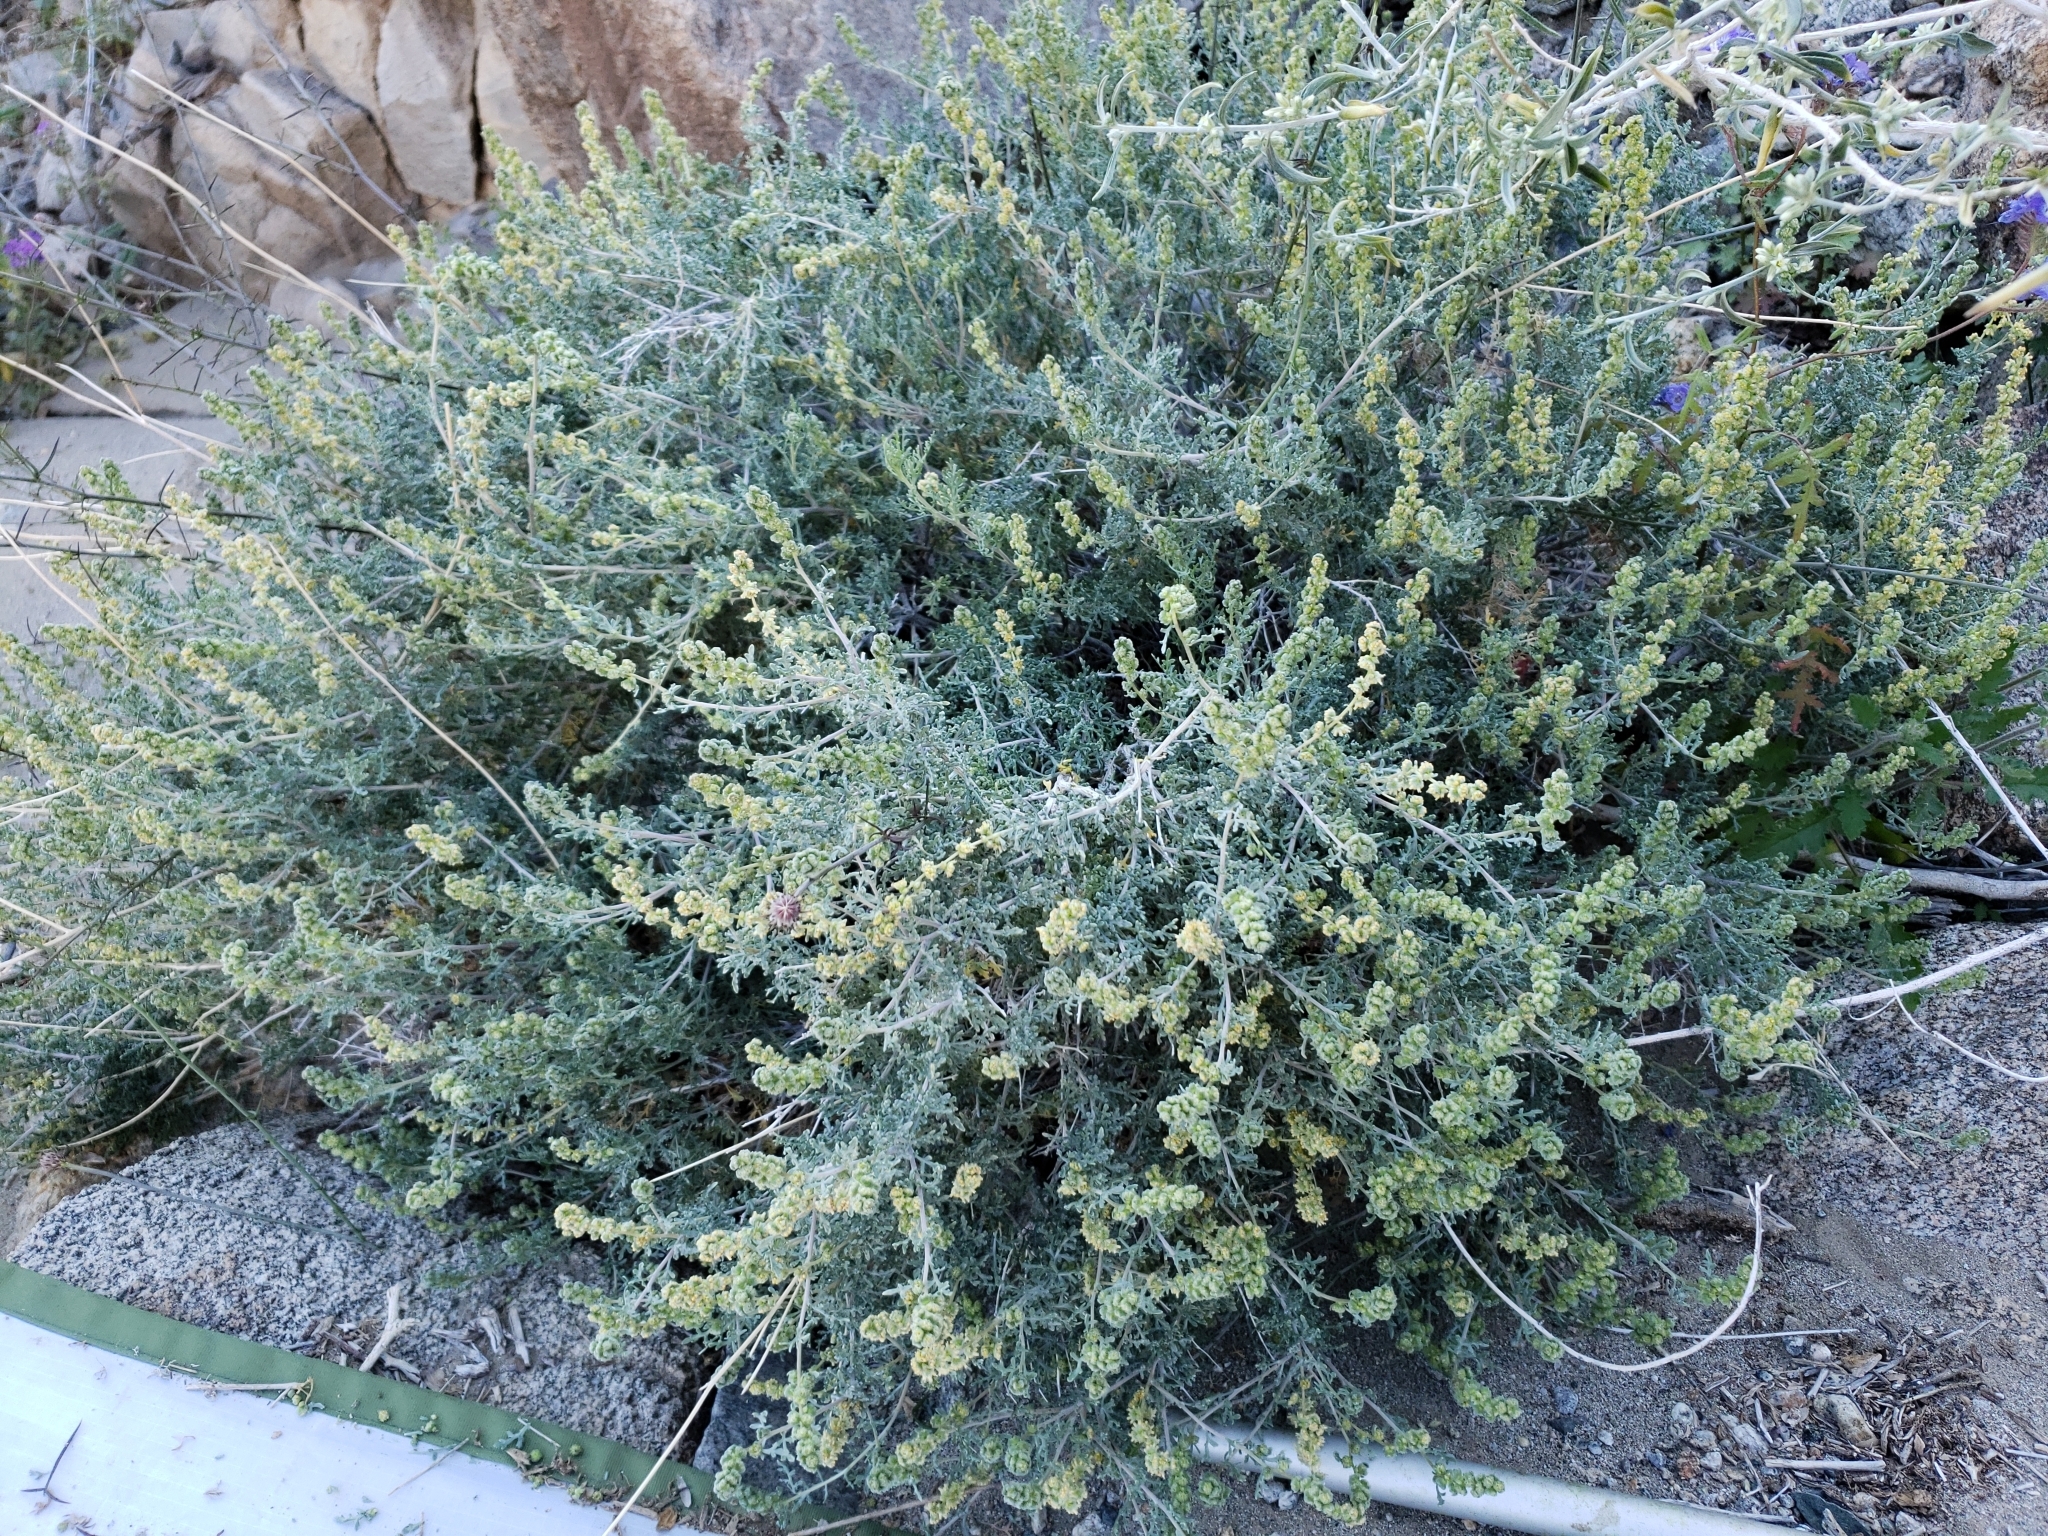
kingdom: Plantae
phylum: Tracheophyta
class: Magnoliopsida
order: Asterales
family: Asteraceae
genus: Ambrosia
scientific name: Ambrosia dumosa
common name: Bur-sage
